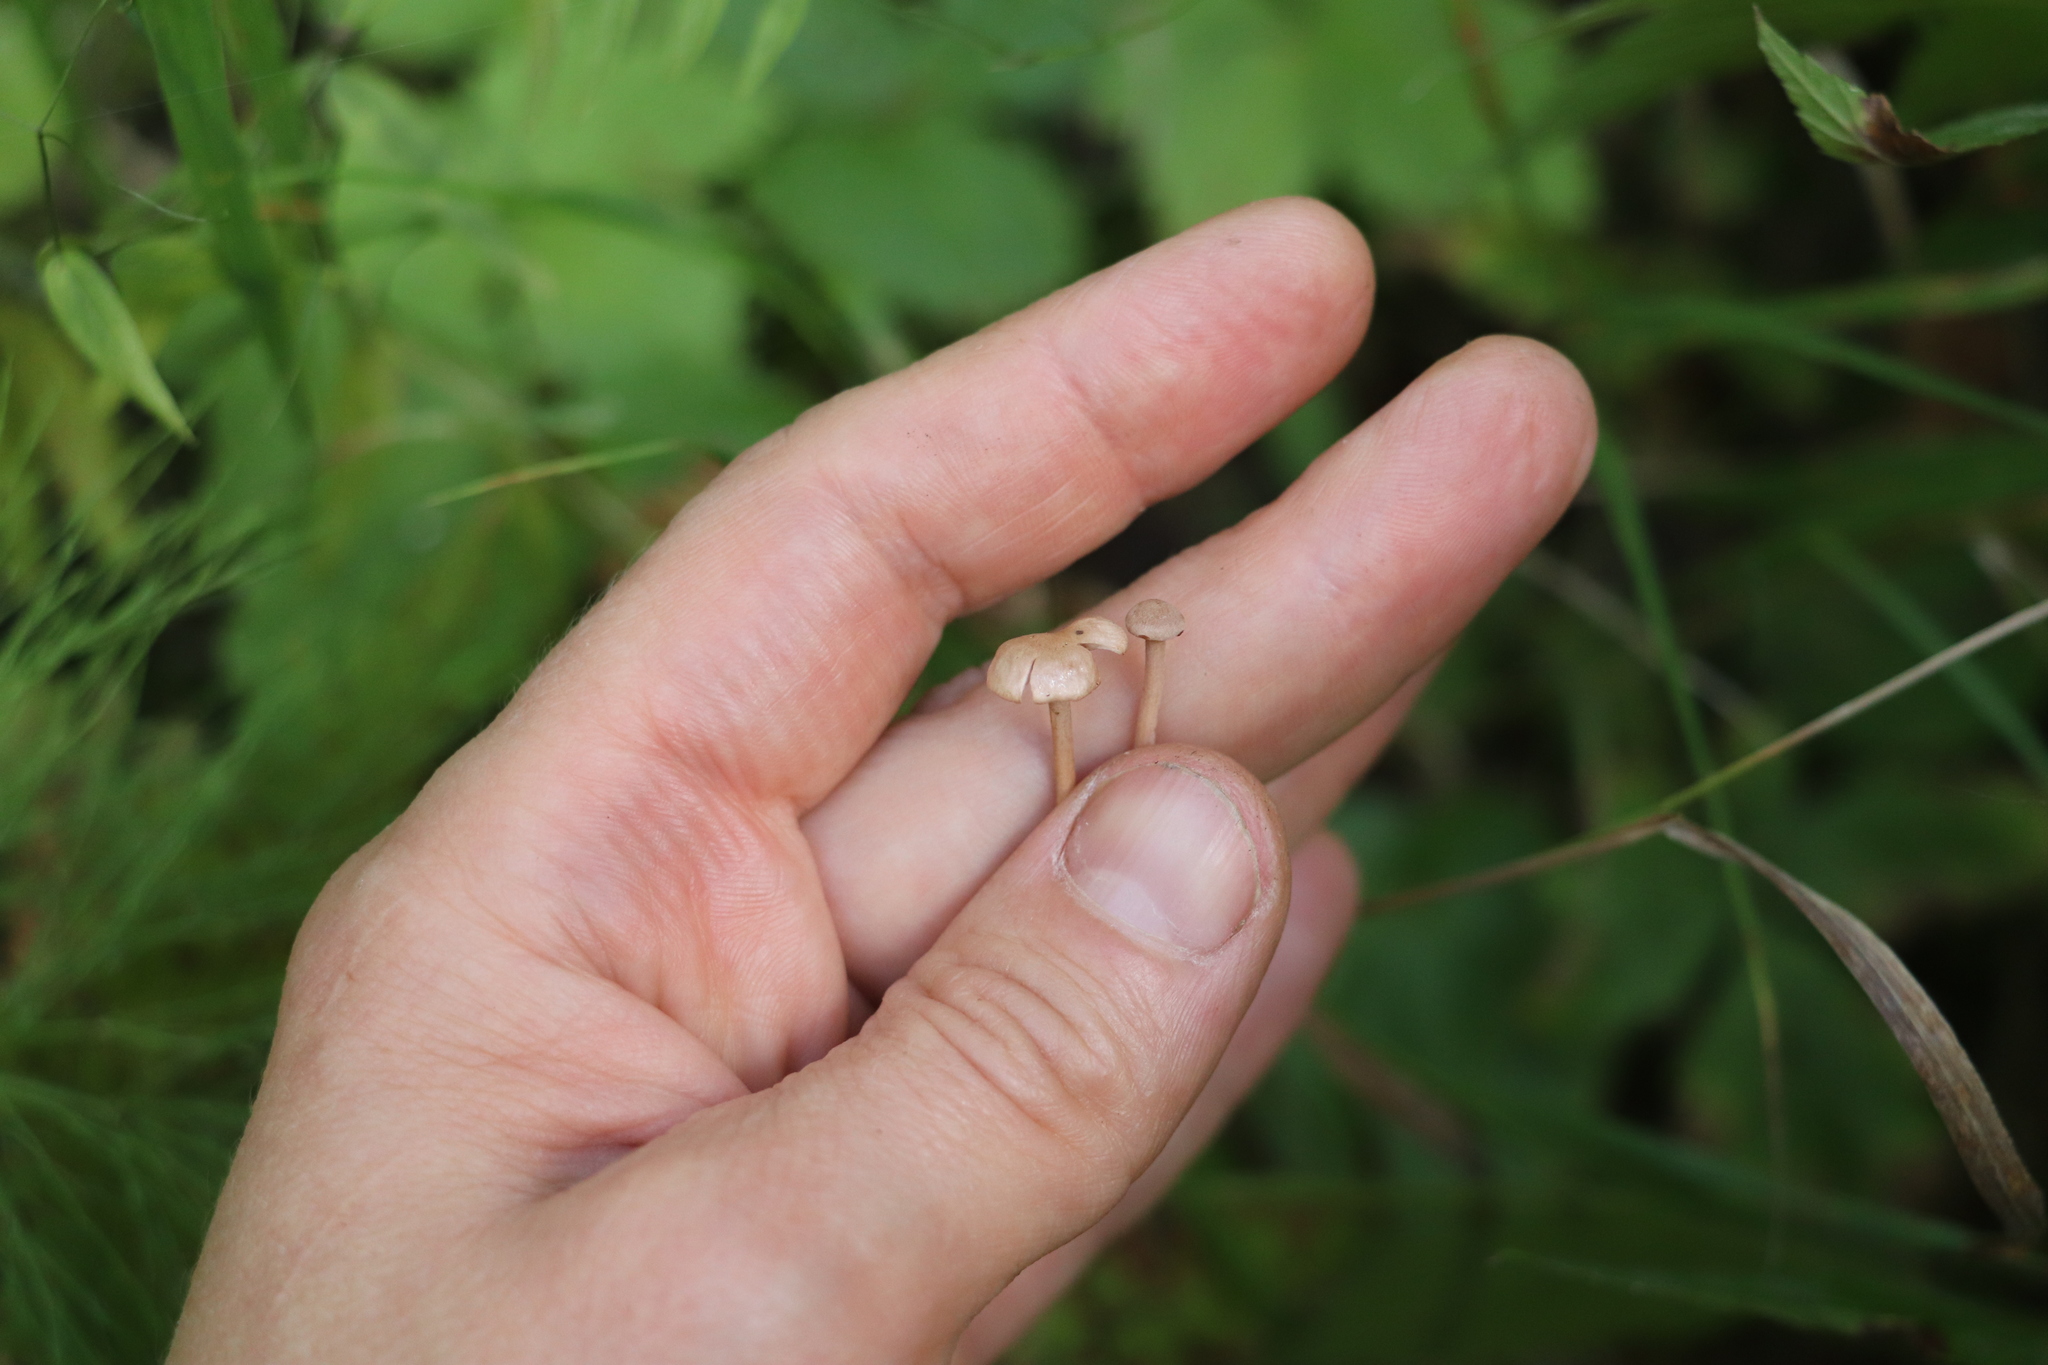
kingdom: Fungi
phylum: Basidiomycota
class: Agaricomycetes
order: Agaricales
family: Omphalotaceae
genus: Paragymnopus
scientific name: Paragymnopus perforans
